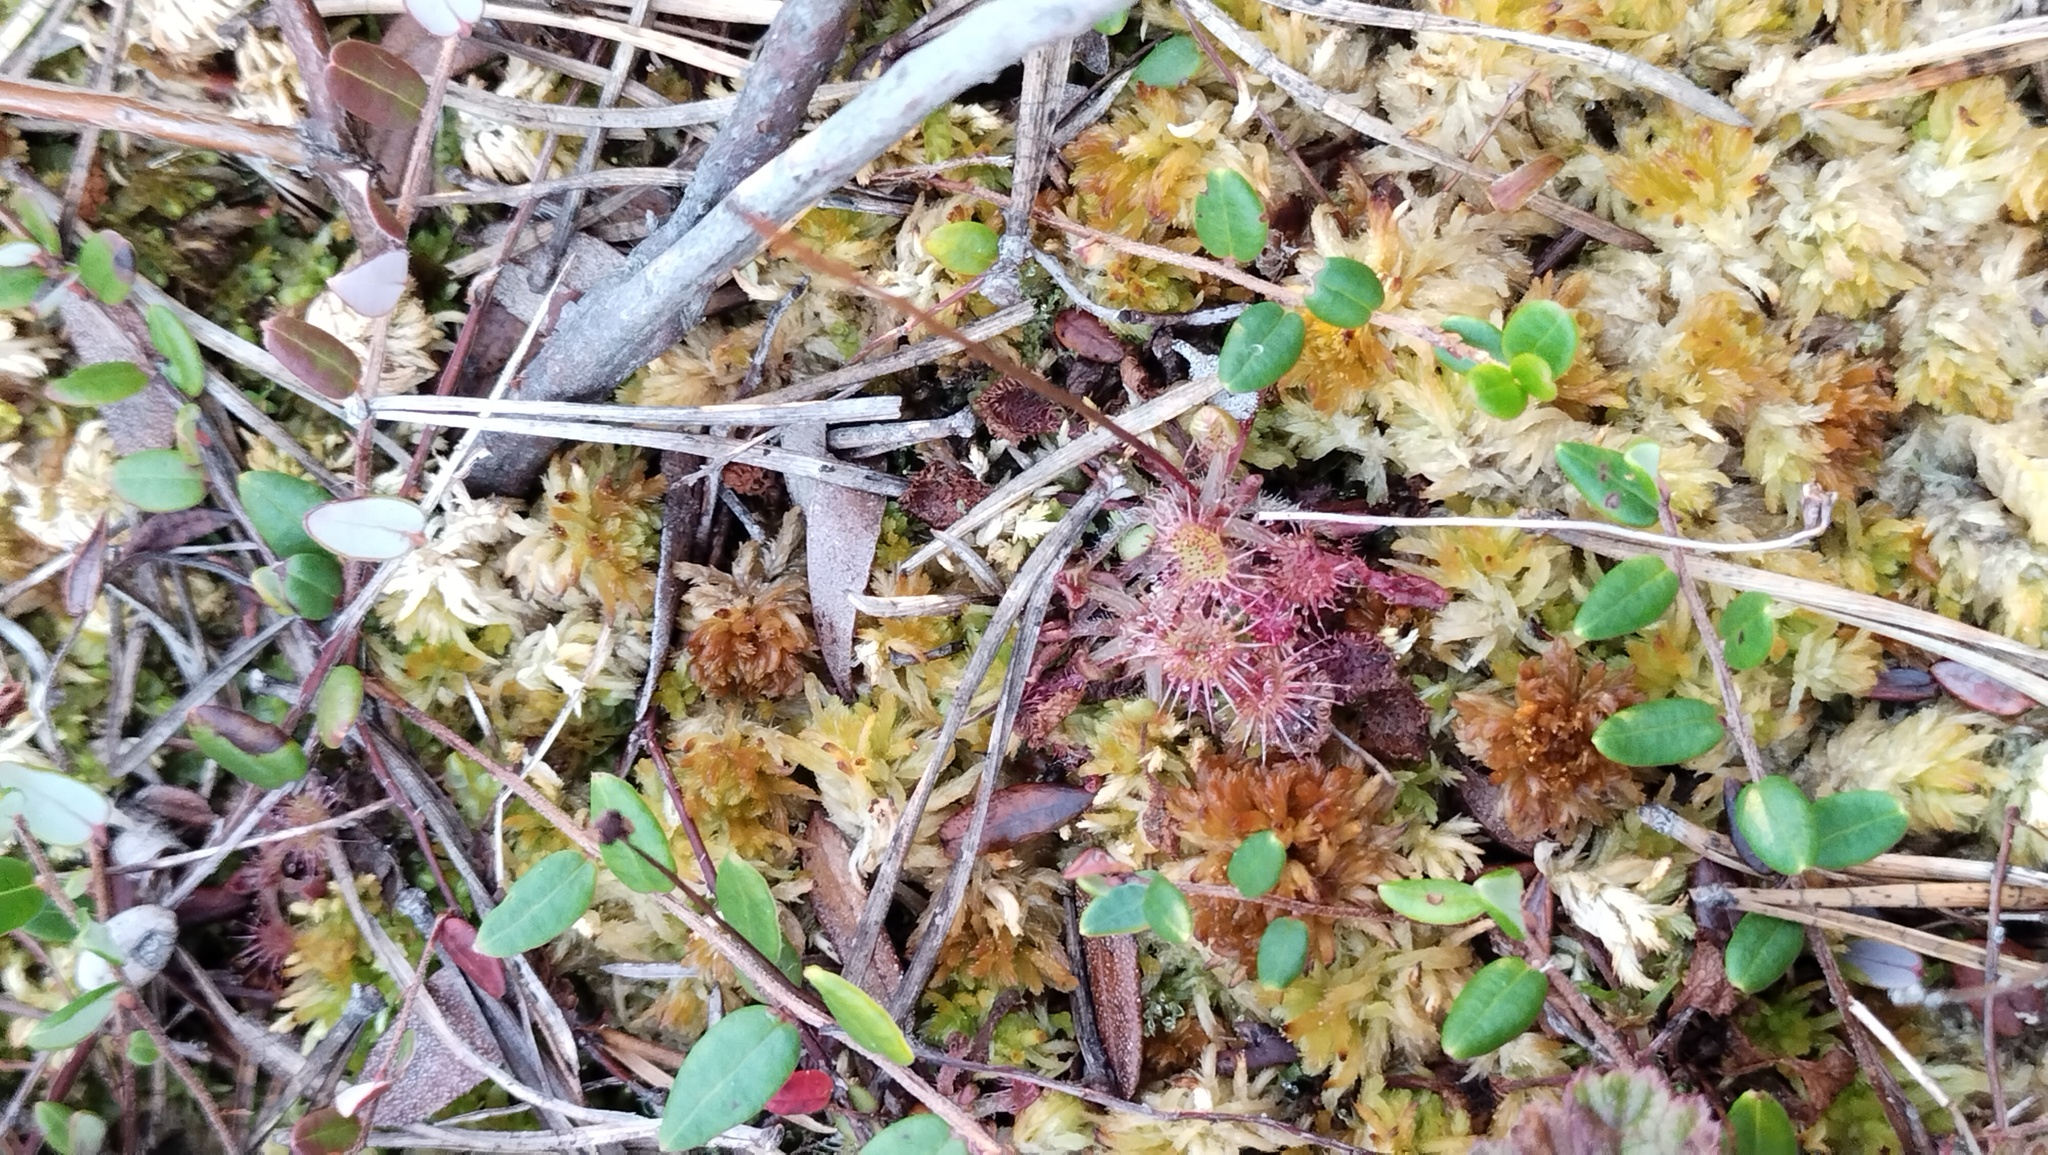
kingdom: Plantae
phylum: Tracheophyta
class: Magnoliopsida
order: Caryophyllales
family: Droseraceae
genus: Drosera
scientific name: Drosera rotundifolia
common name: Round-leaved sundew
